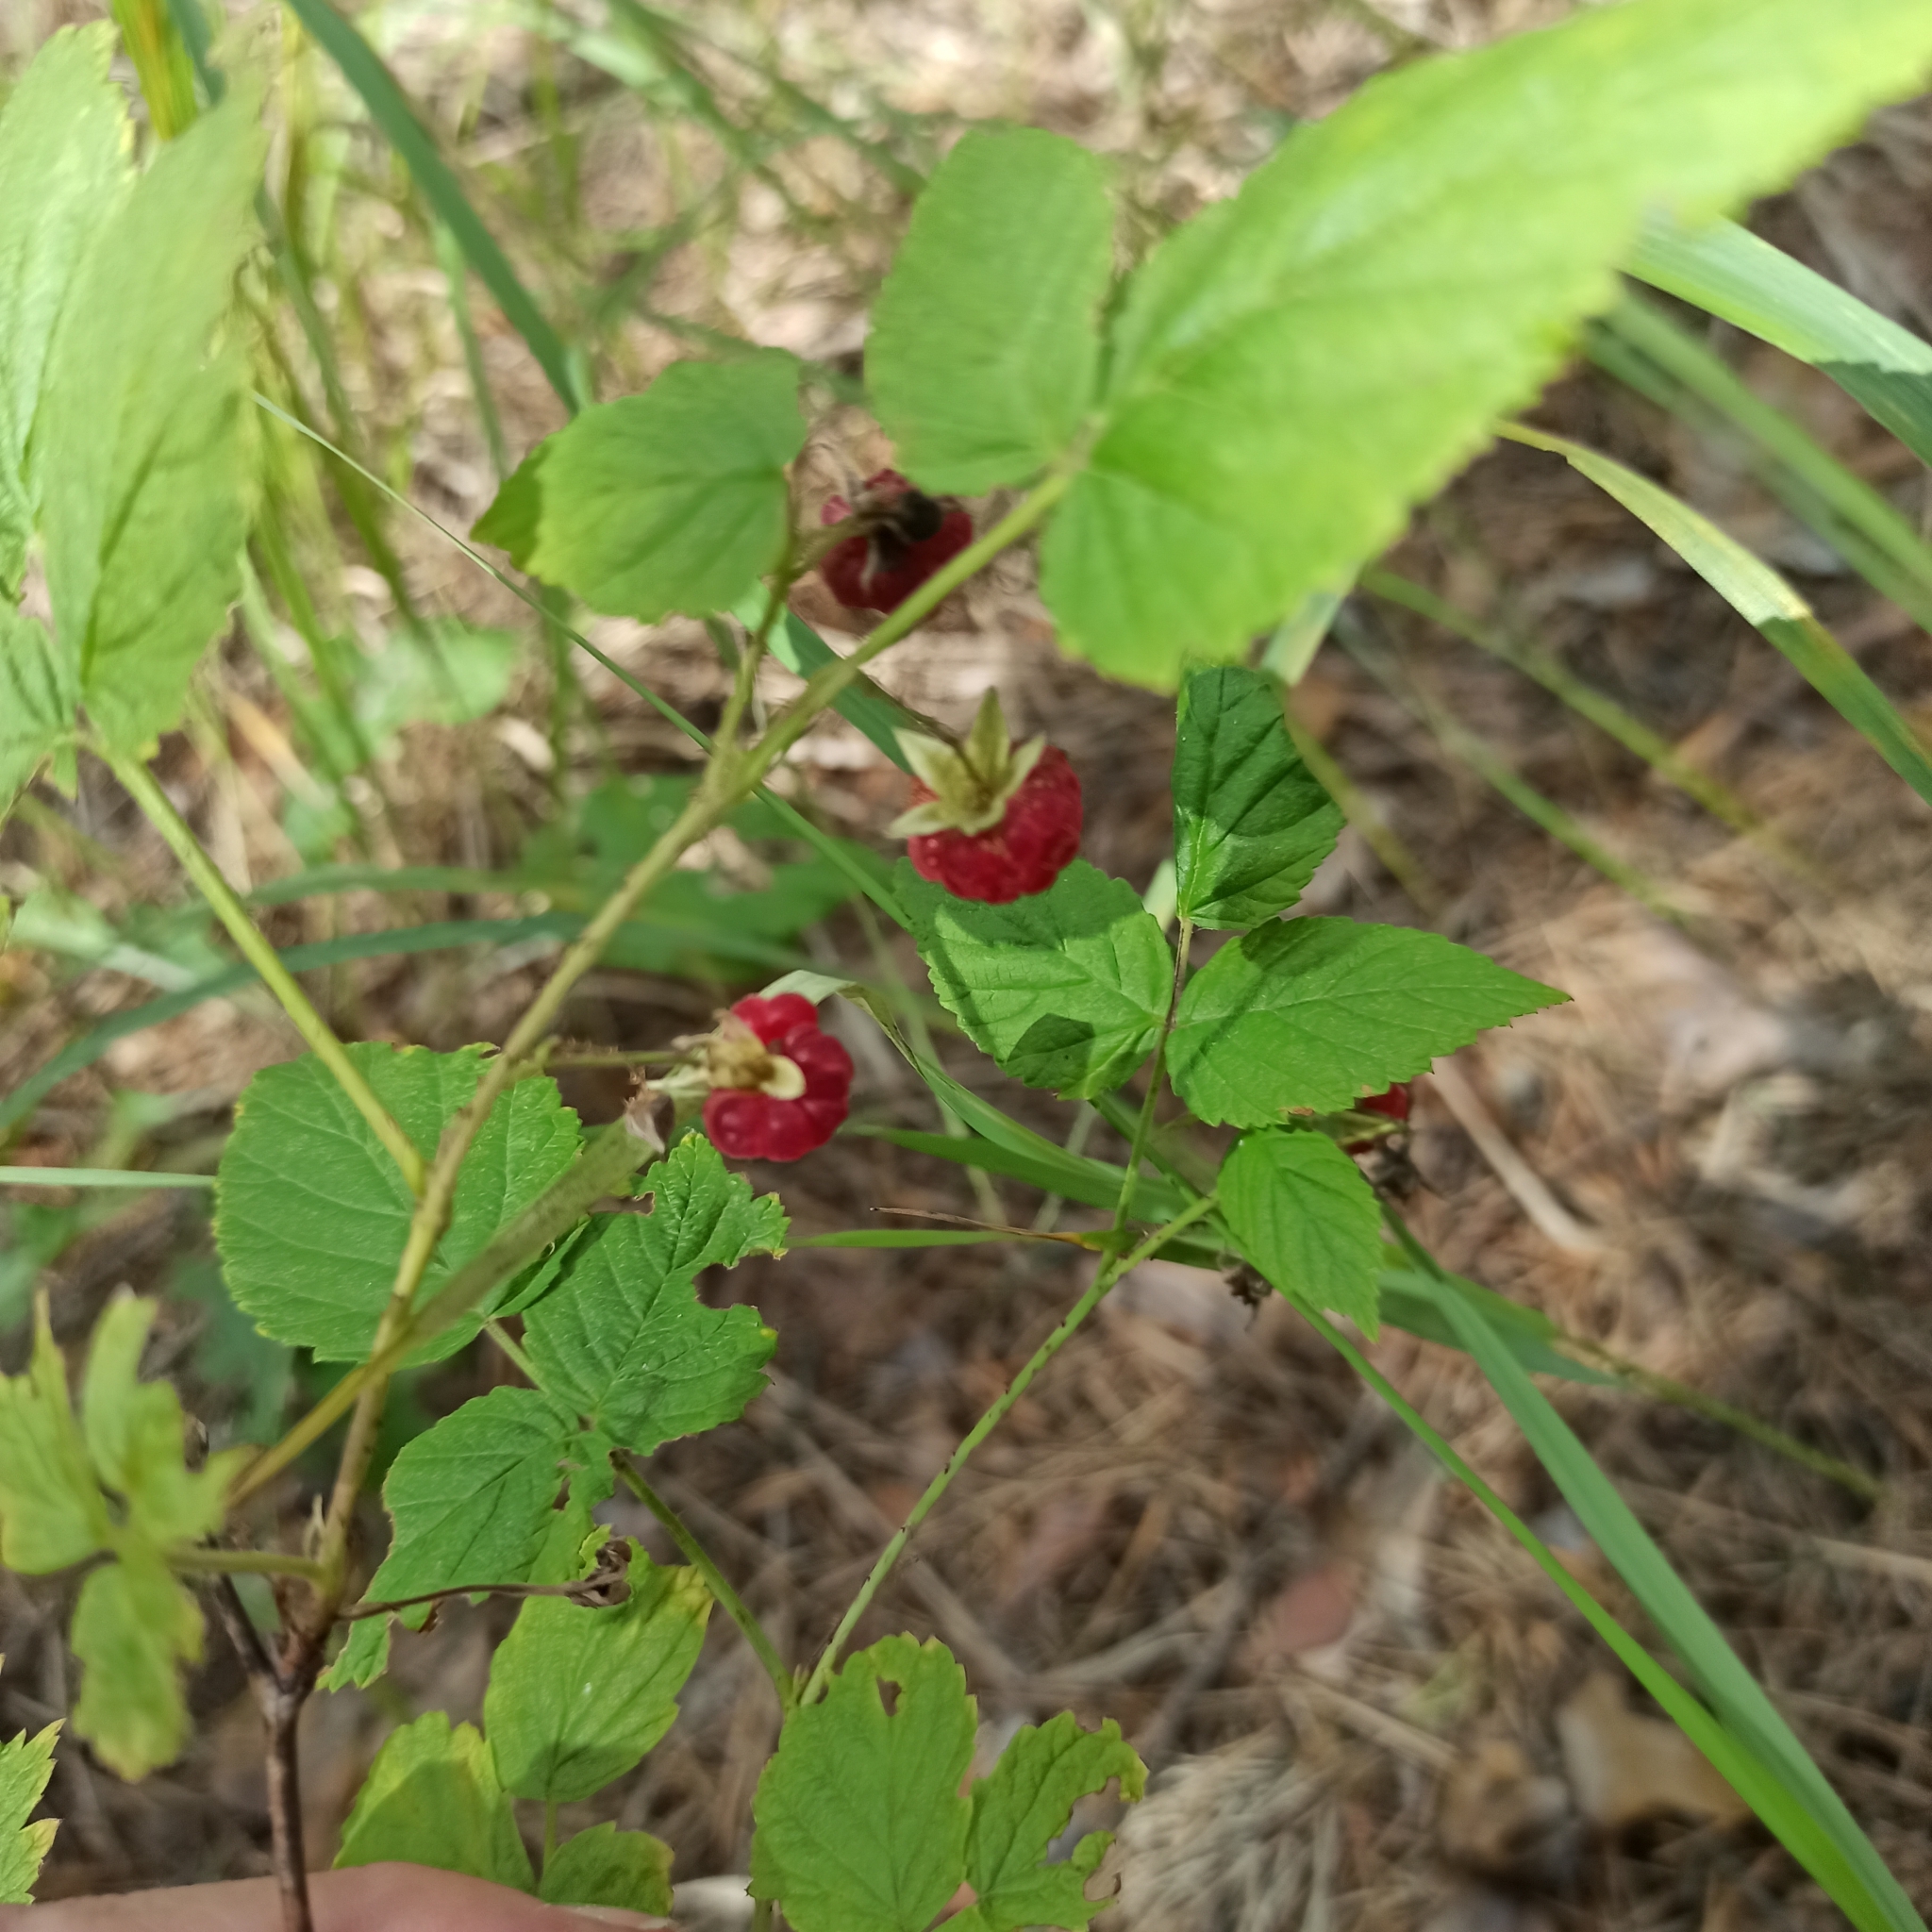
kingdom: Plantae
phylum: Tracheophyta
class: Magnoliopsida
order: Rosales
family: Rosaceae
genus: Rubus
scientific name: Rubus idaeus
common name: Raspberry
